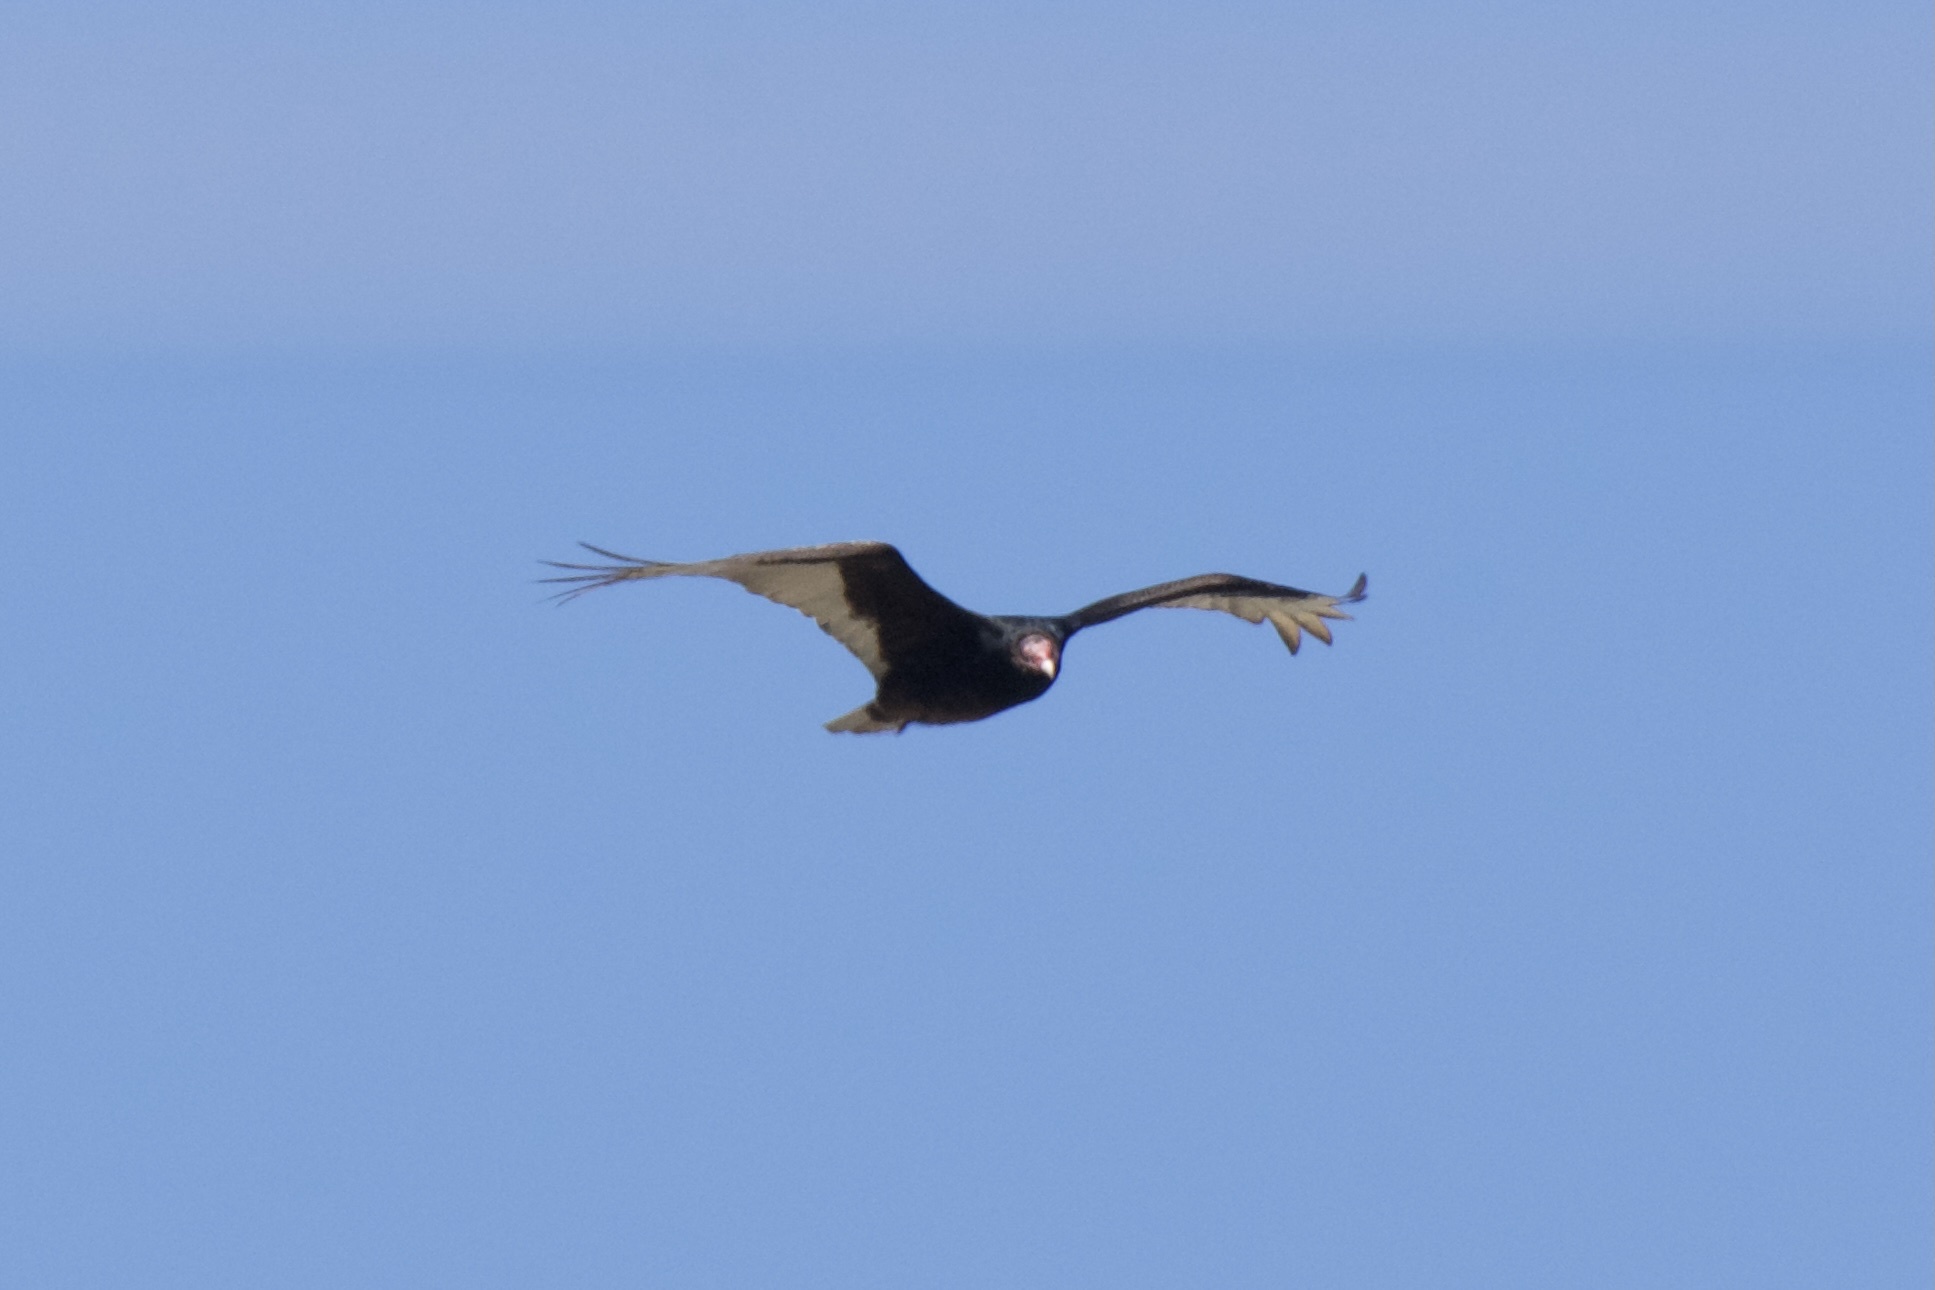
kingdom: Animalia
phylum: Chordata
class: Aves
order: Accipitriformes
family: Cathartidae
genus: Cathartes
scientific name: Cathartes aura
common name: Turkey vulture
